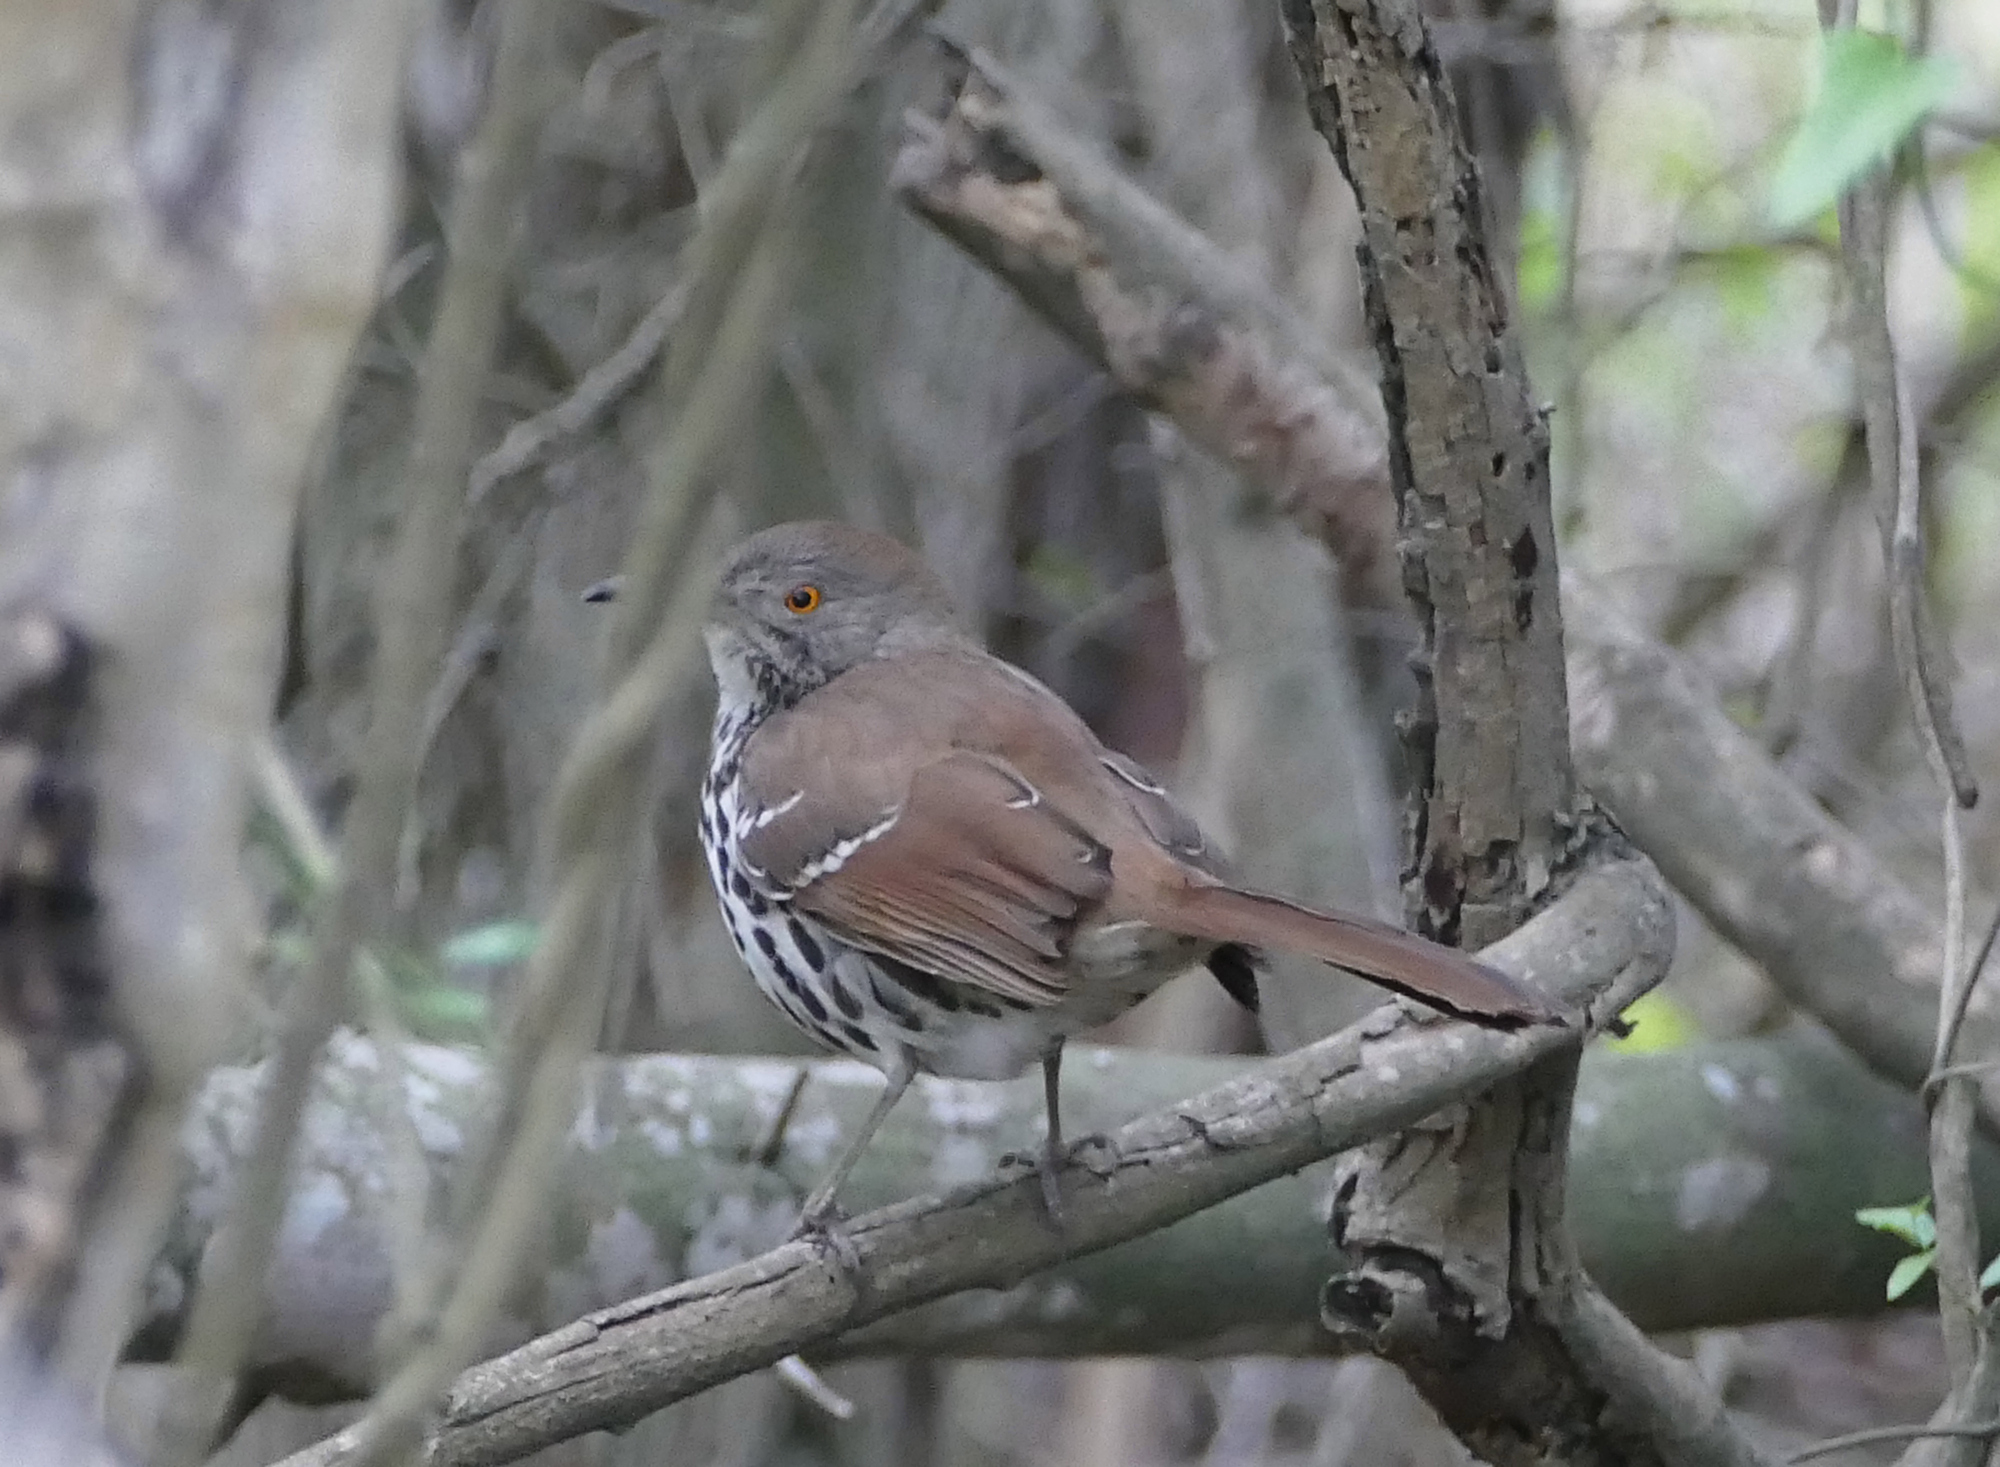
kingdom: Animalia
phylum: Chordata
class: Aves
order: Passeriformes
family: Mimidae
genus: Toxostoma
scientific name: Toxostoma longirostre
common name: Long-billed thrasher
